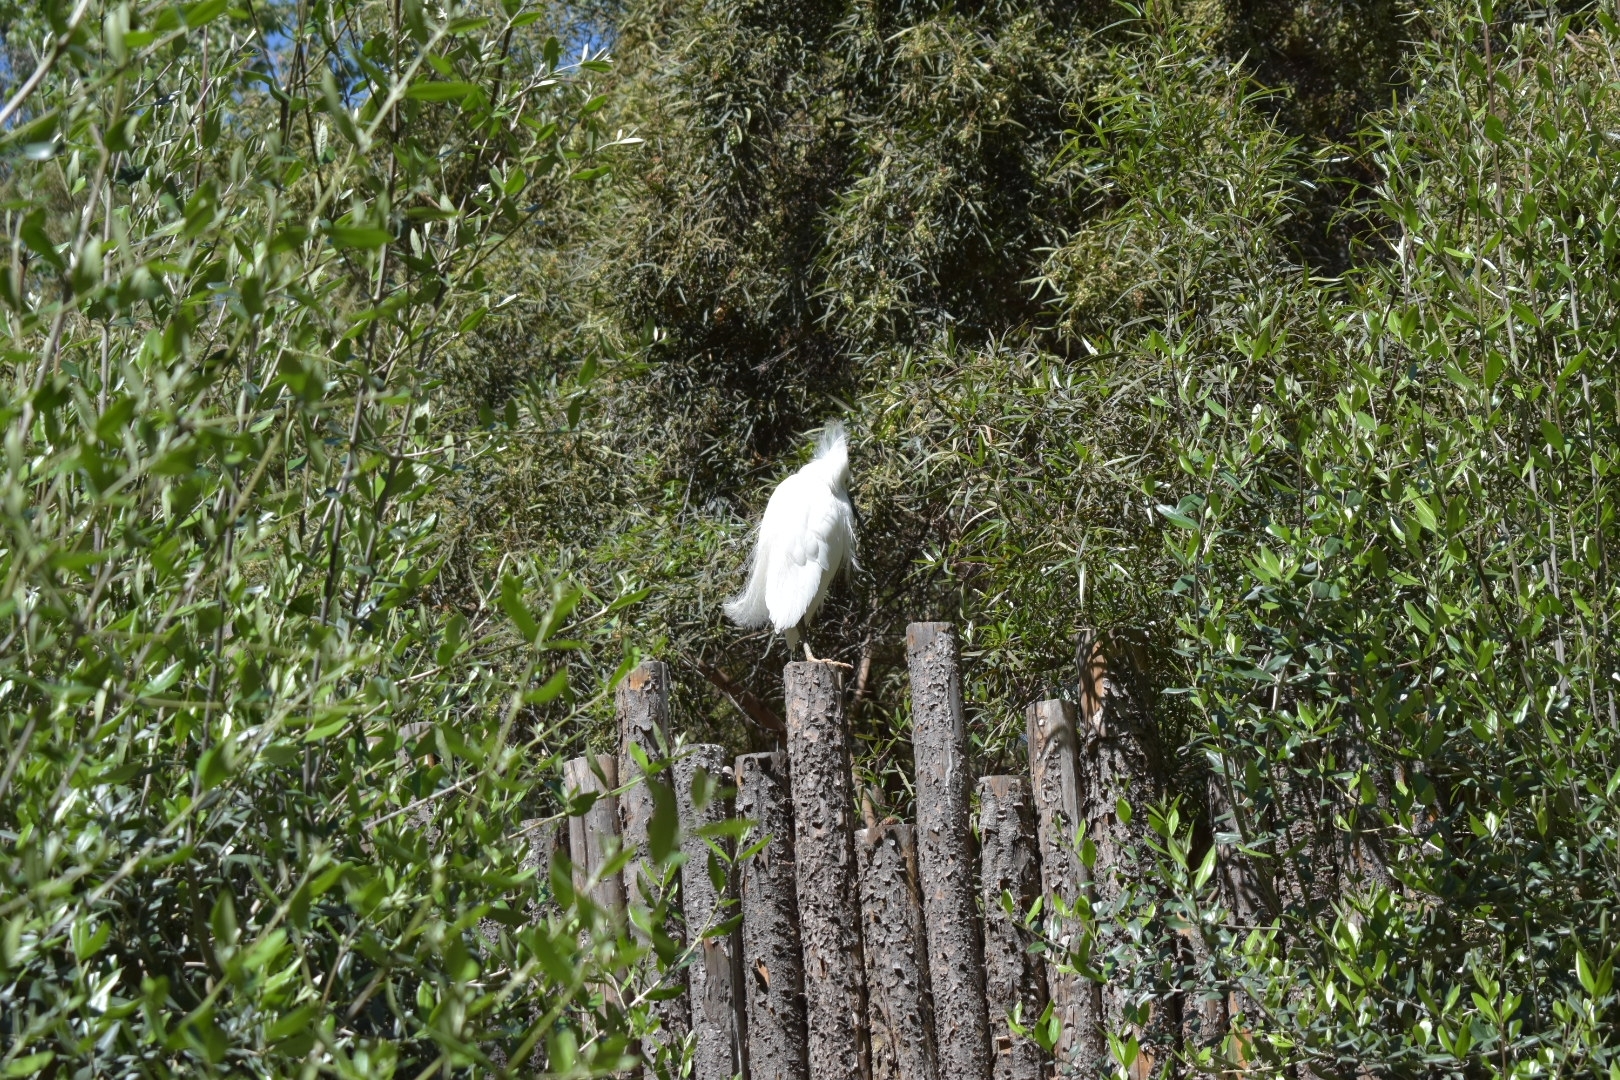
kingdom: Animalia
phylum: Chordata
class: Aves
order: Pelecaniformes
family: Ardeidae
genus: Egretta
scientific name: Egretta thula
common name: Snowy egret
